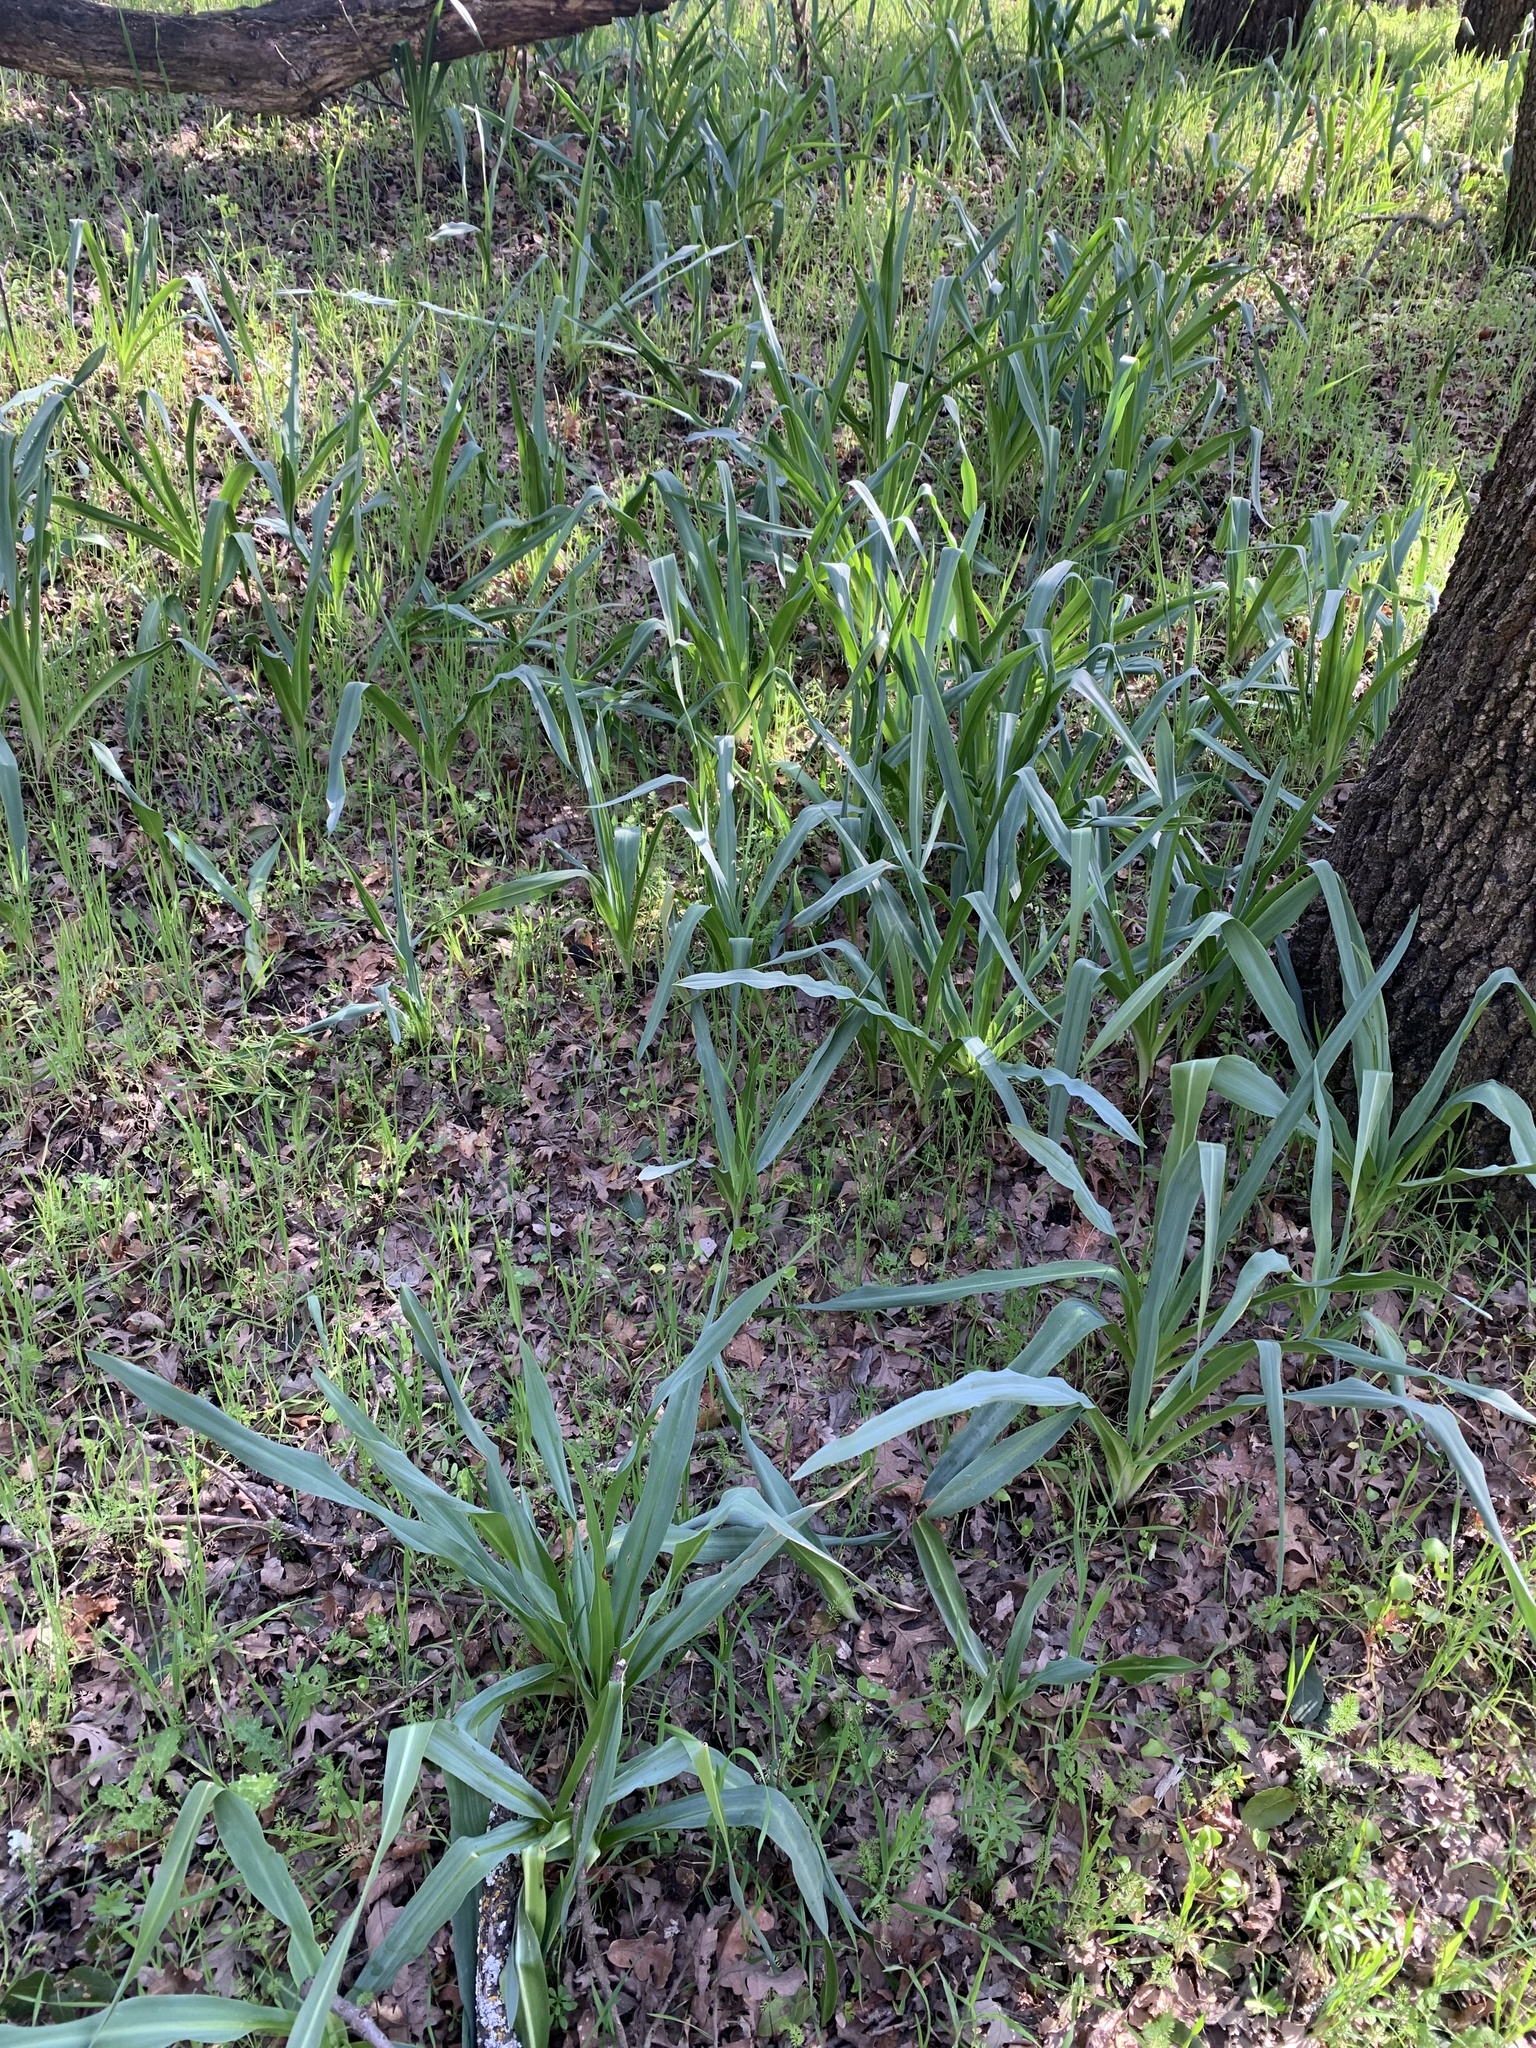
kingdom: Plantae
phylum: Tracheophyta
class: Liliopsida
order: Asparagales
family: Asparagaceae
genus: Chlorogalum
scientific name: Chlorogalum pomeridianum
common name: Amole
